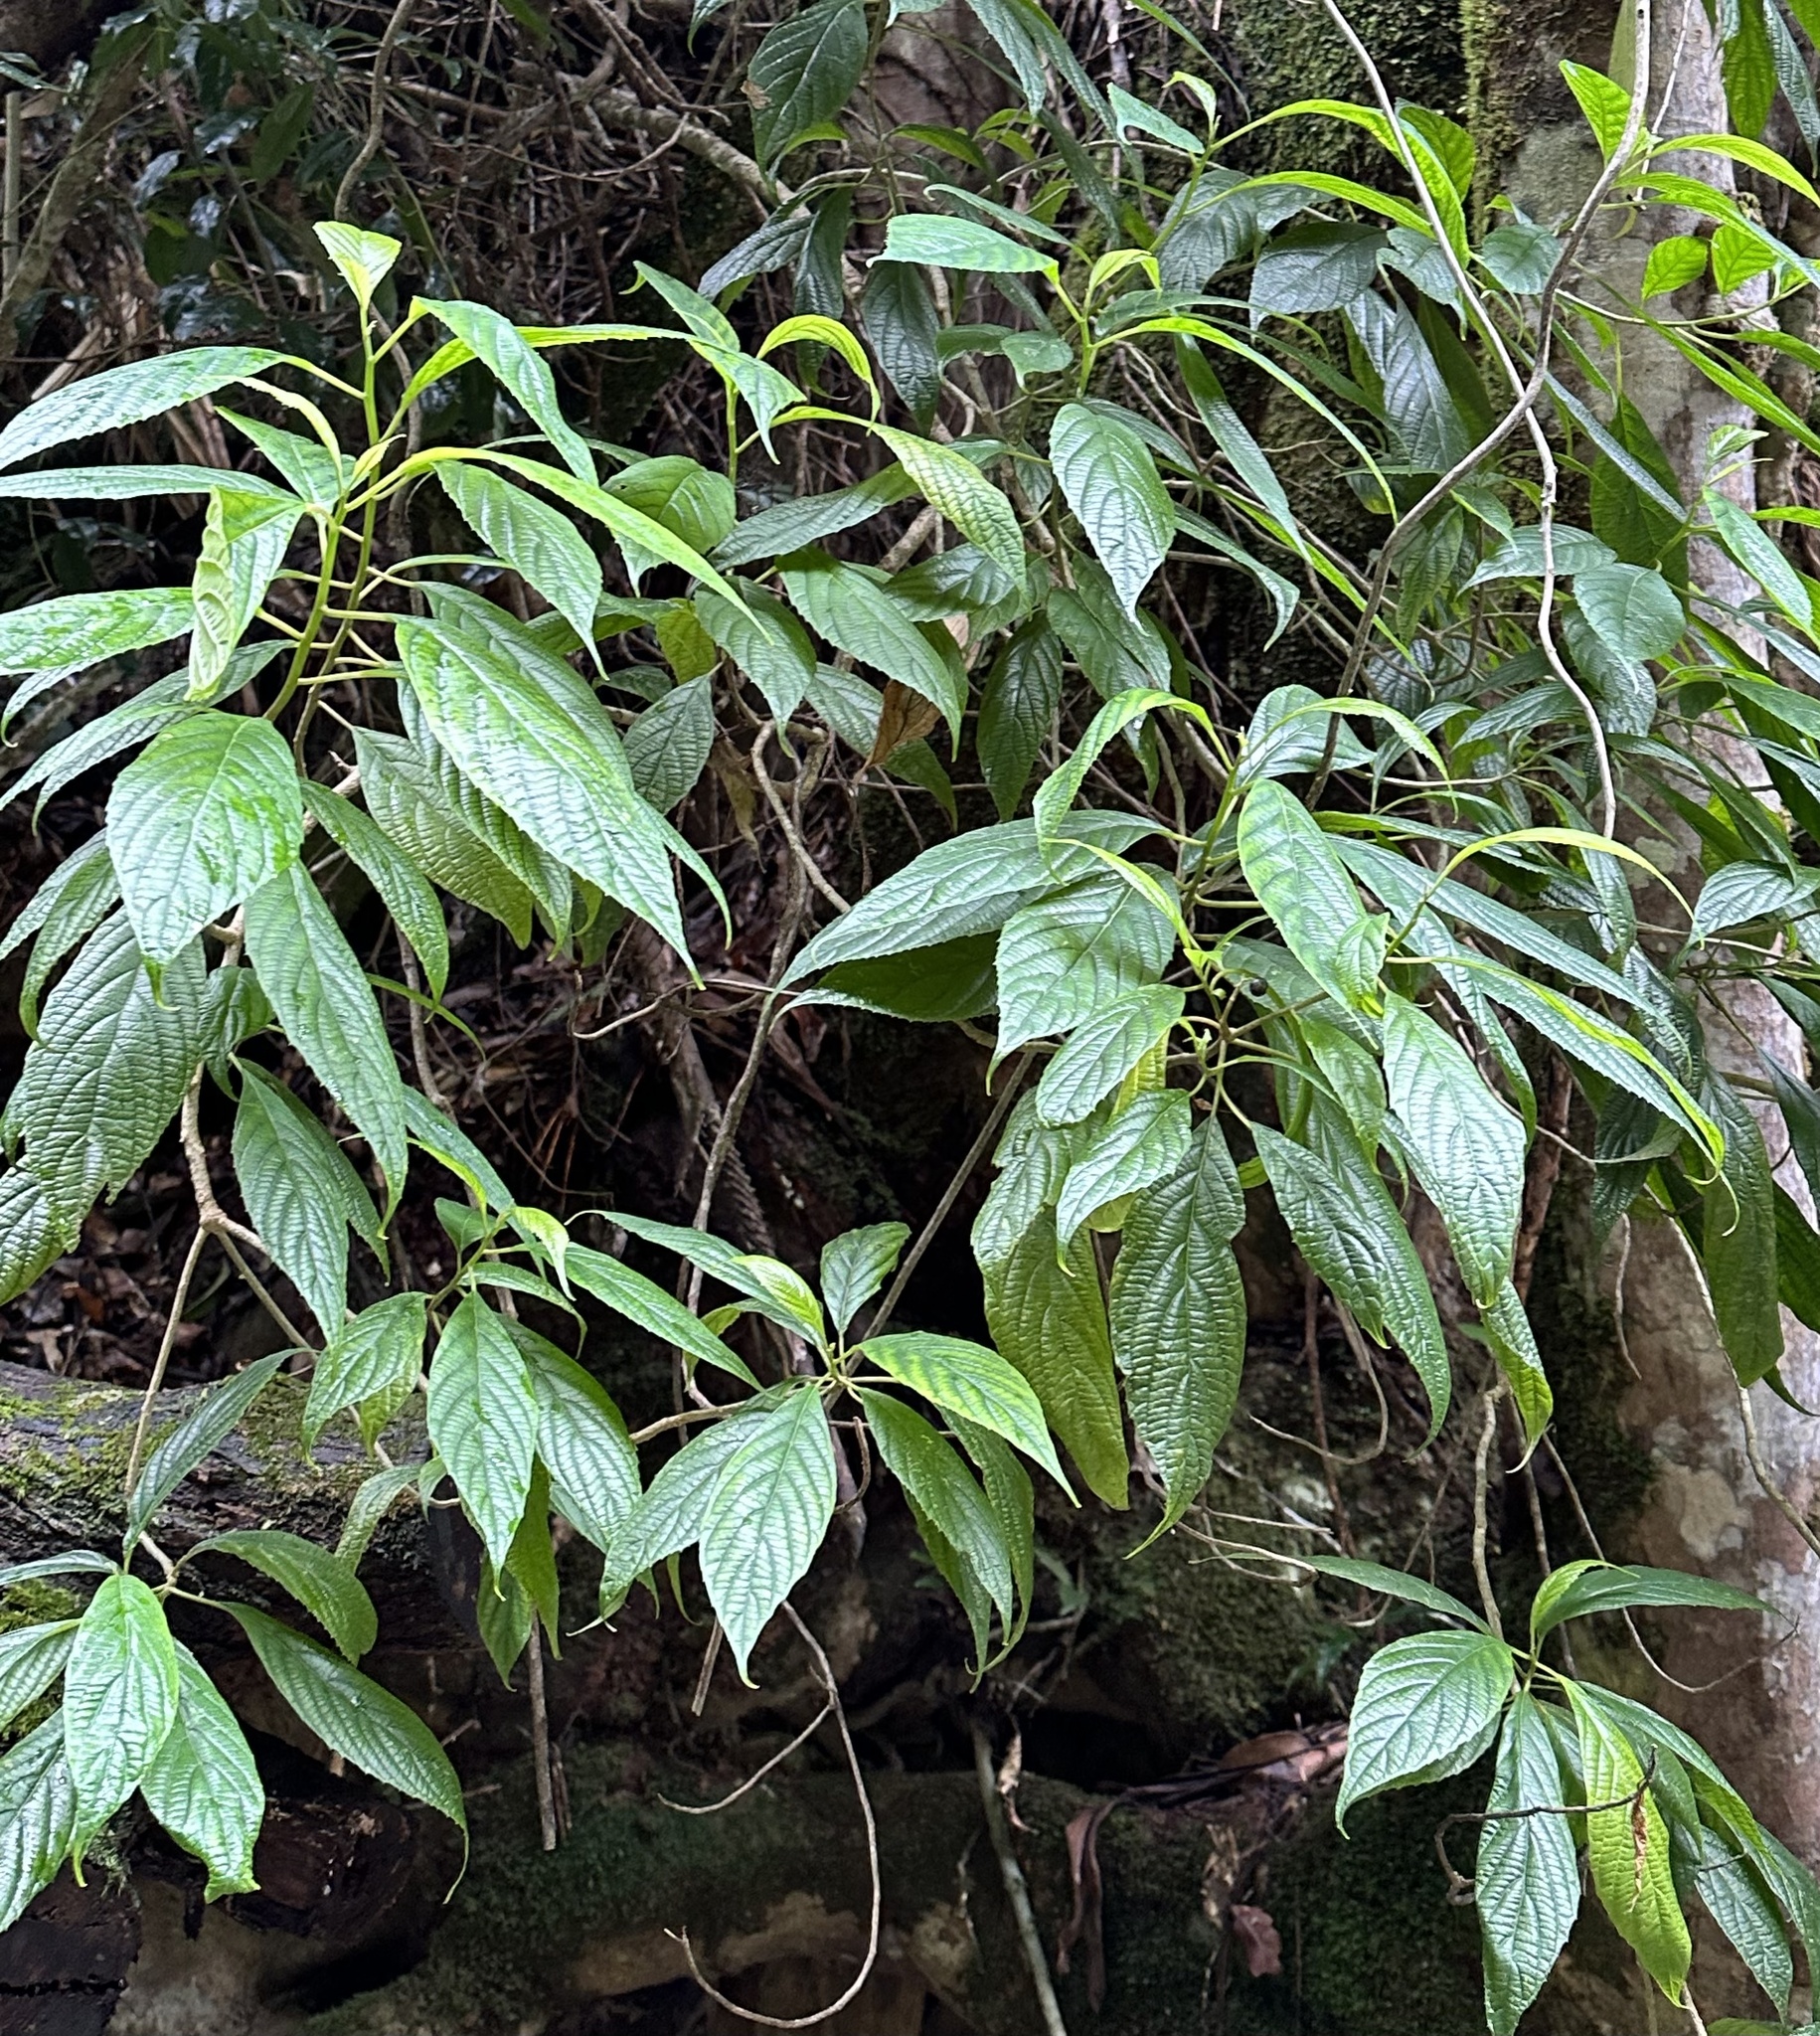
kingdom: Plantae
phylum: Tracheophyta
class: Magnoliopsida
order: Asterales
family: Rousseaceae
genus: Abrophyllum
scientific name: Abrophyllum ornans
